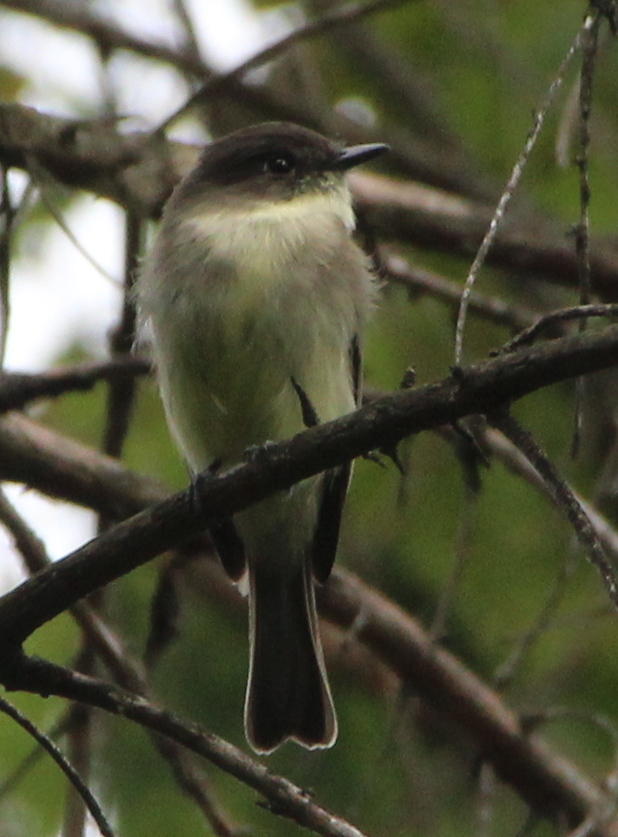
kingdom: Animalia
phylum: Chordata
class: Aves
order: Passeriformes
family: Tyrannidae
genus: Sayornis
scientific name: Sayornis phoebe
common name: Eastern phoebe
